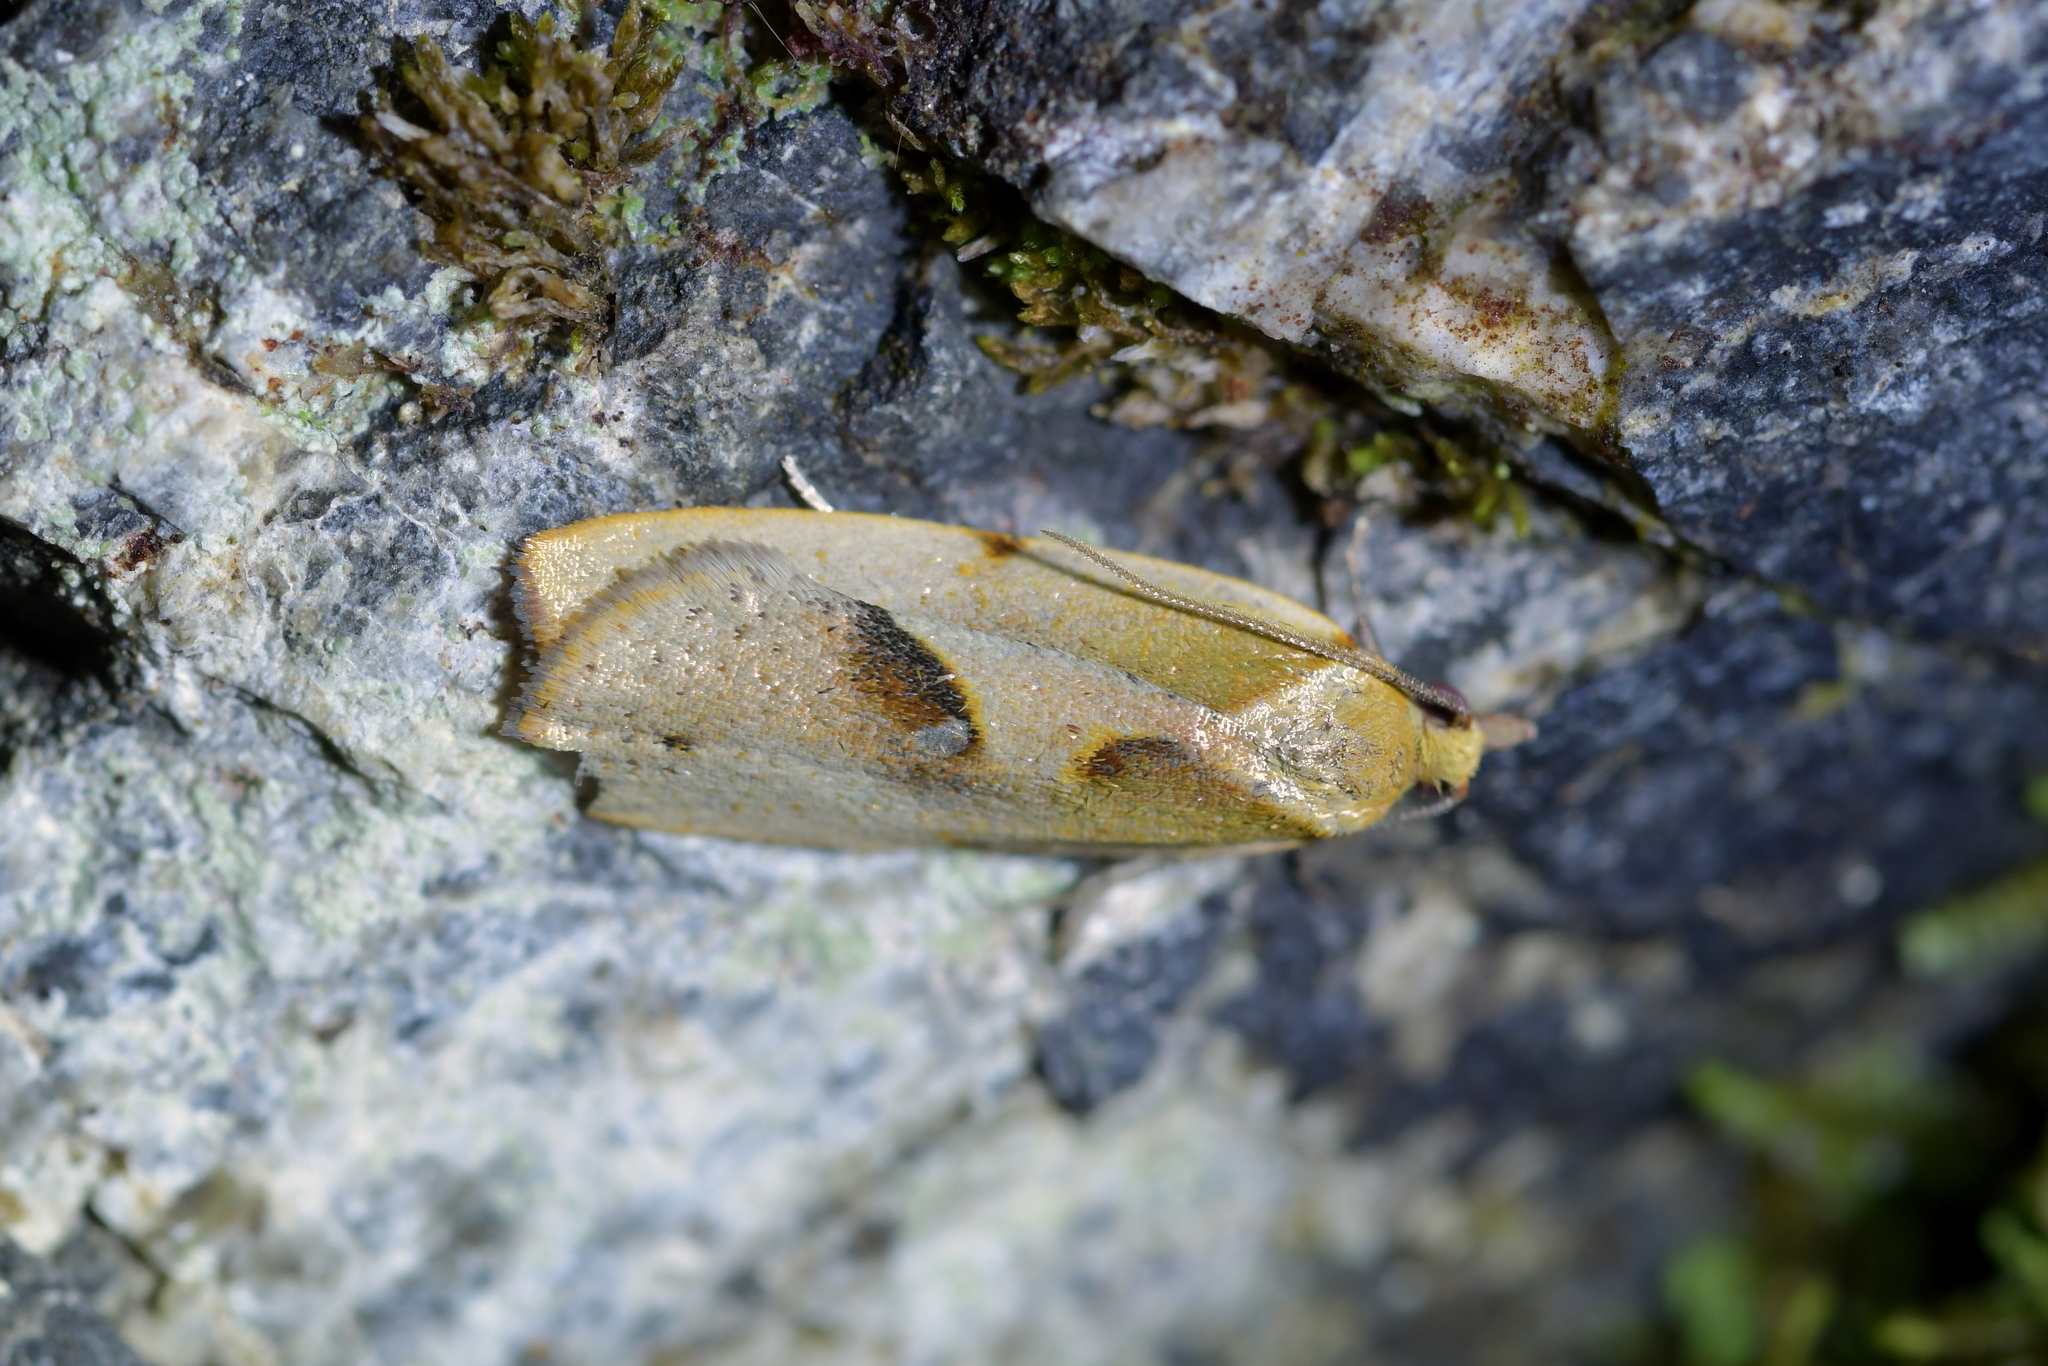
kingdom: Animalia
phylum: Arthropoda
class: Insecta
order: Lepidoptera
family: Tortricidae
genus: Apoctena
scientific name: Apoctena pictoriana
